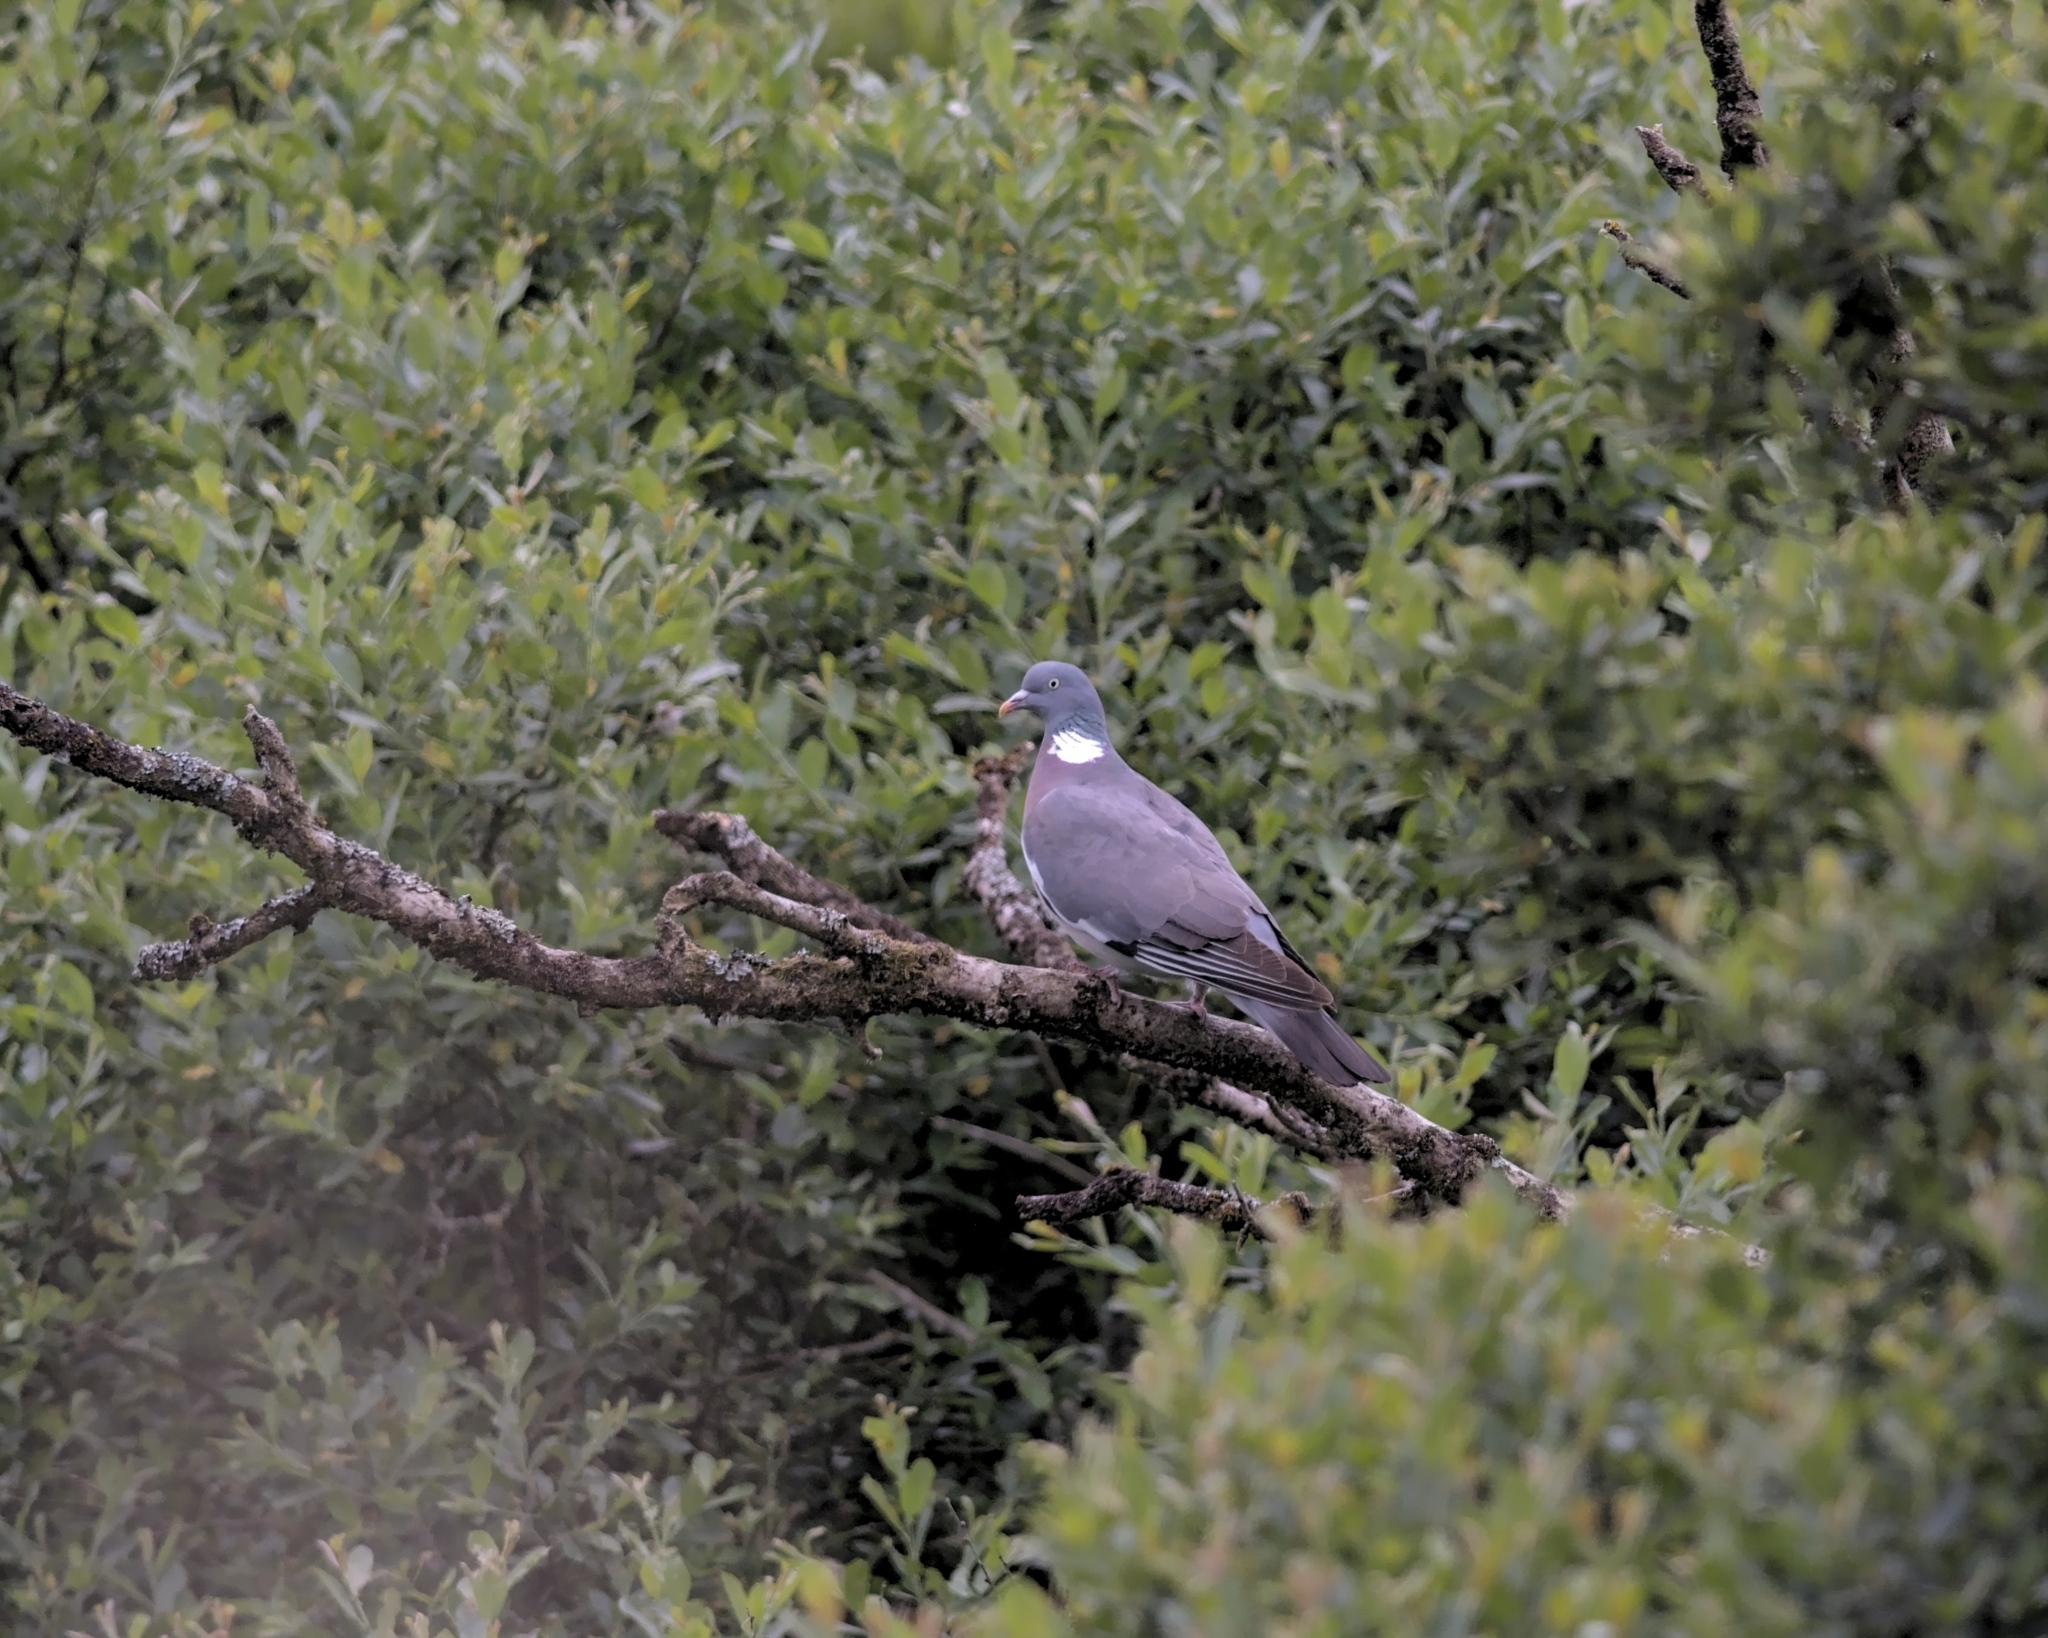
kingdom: Animalia
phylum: Chordata
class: Aves
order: Columbiformes
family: Columbidae
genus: Columba
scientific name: Columba palumbus
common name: Common wood pigeon
